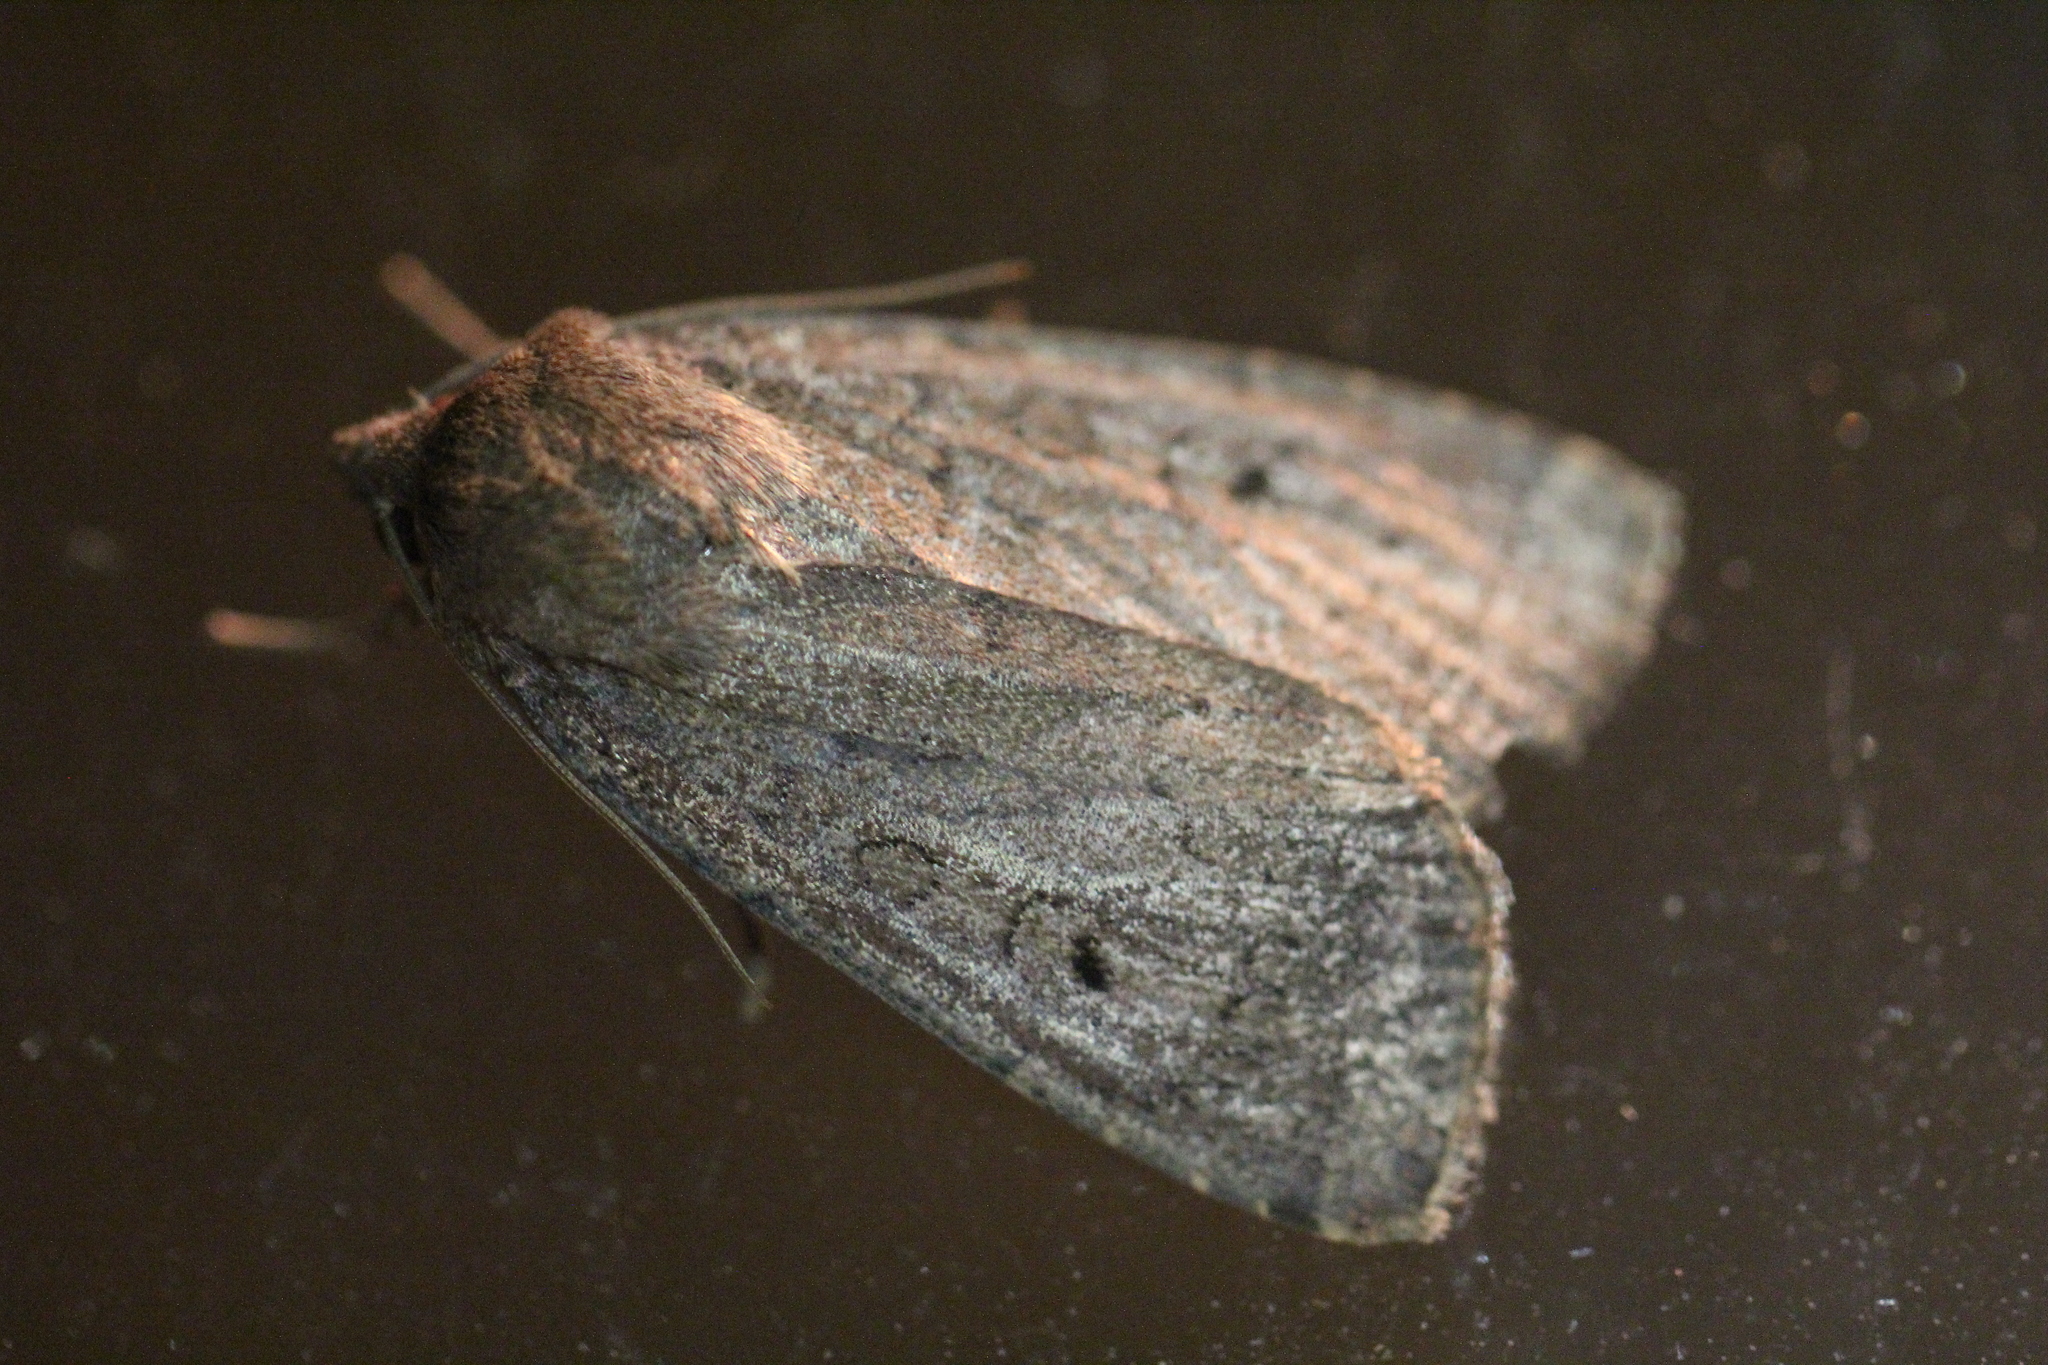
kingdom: Animalia
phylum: Arthropoda
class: Insecta
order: Lepidoptera
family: Noctuidae
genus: Graphiphora
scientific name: Graphiphora augur
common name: Double dart
